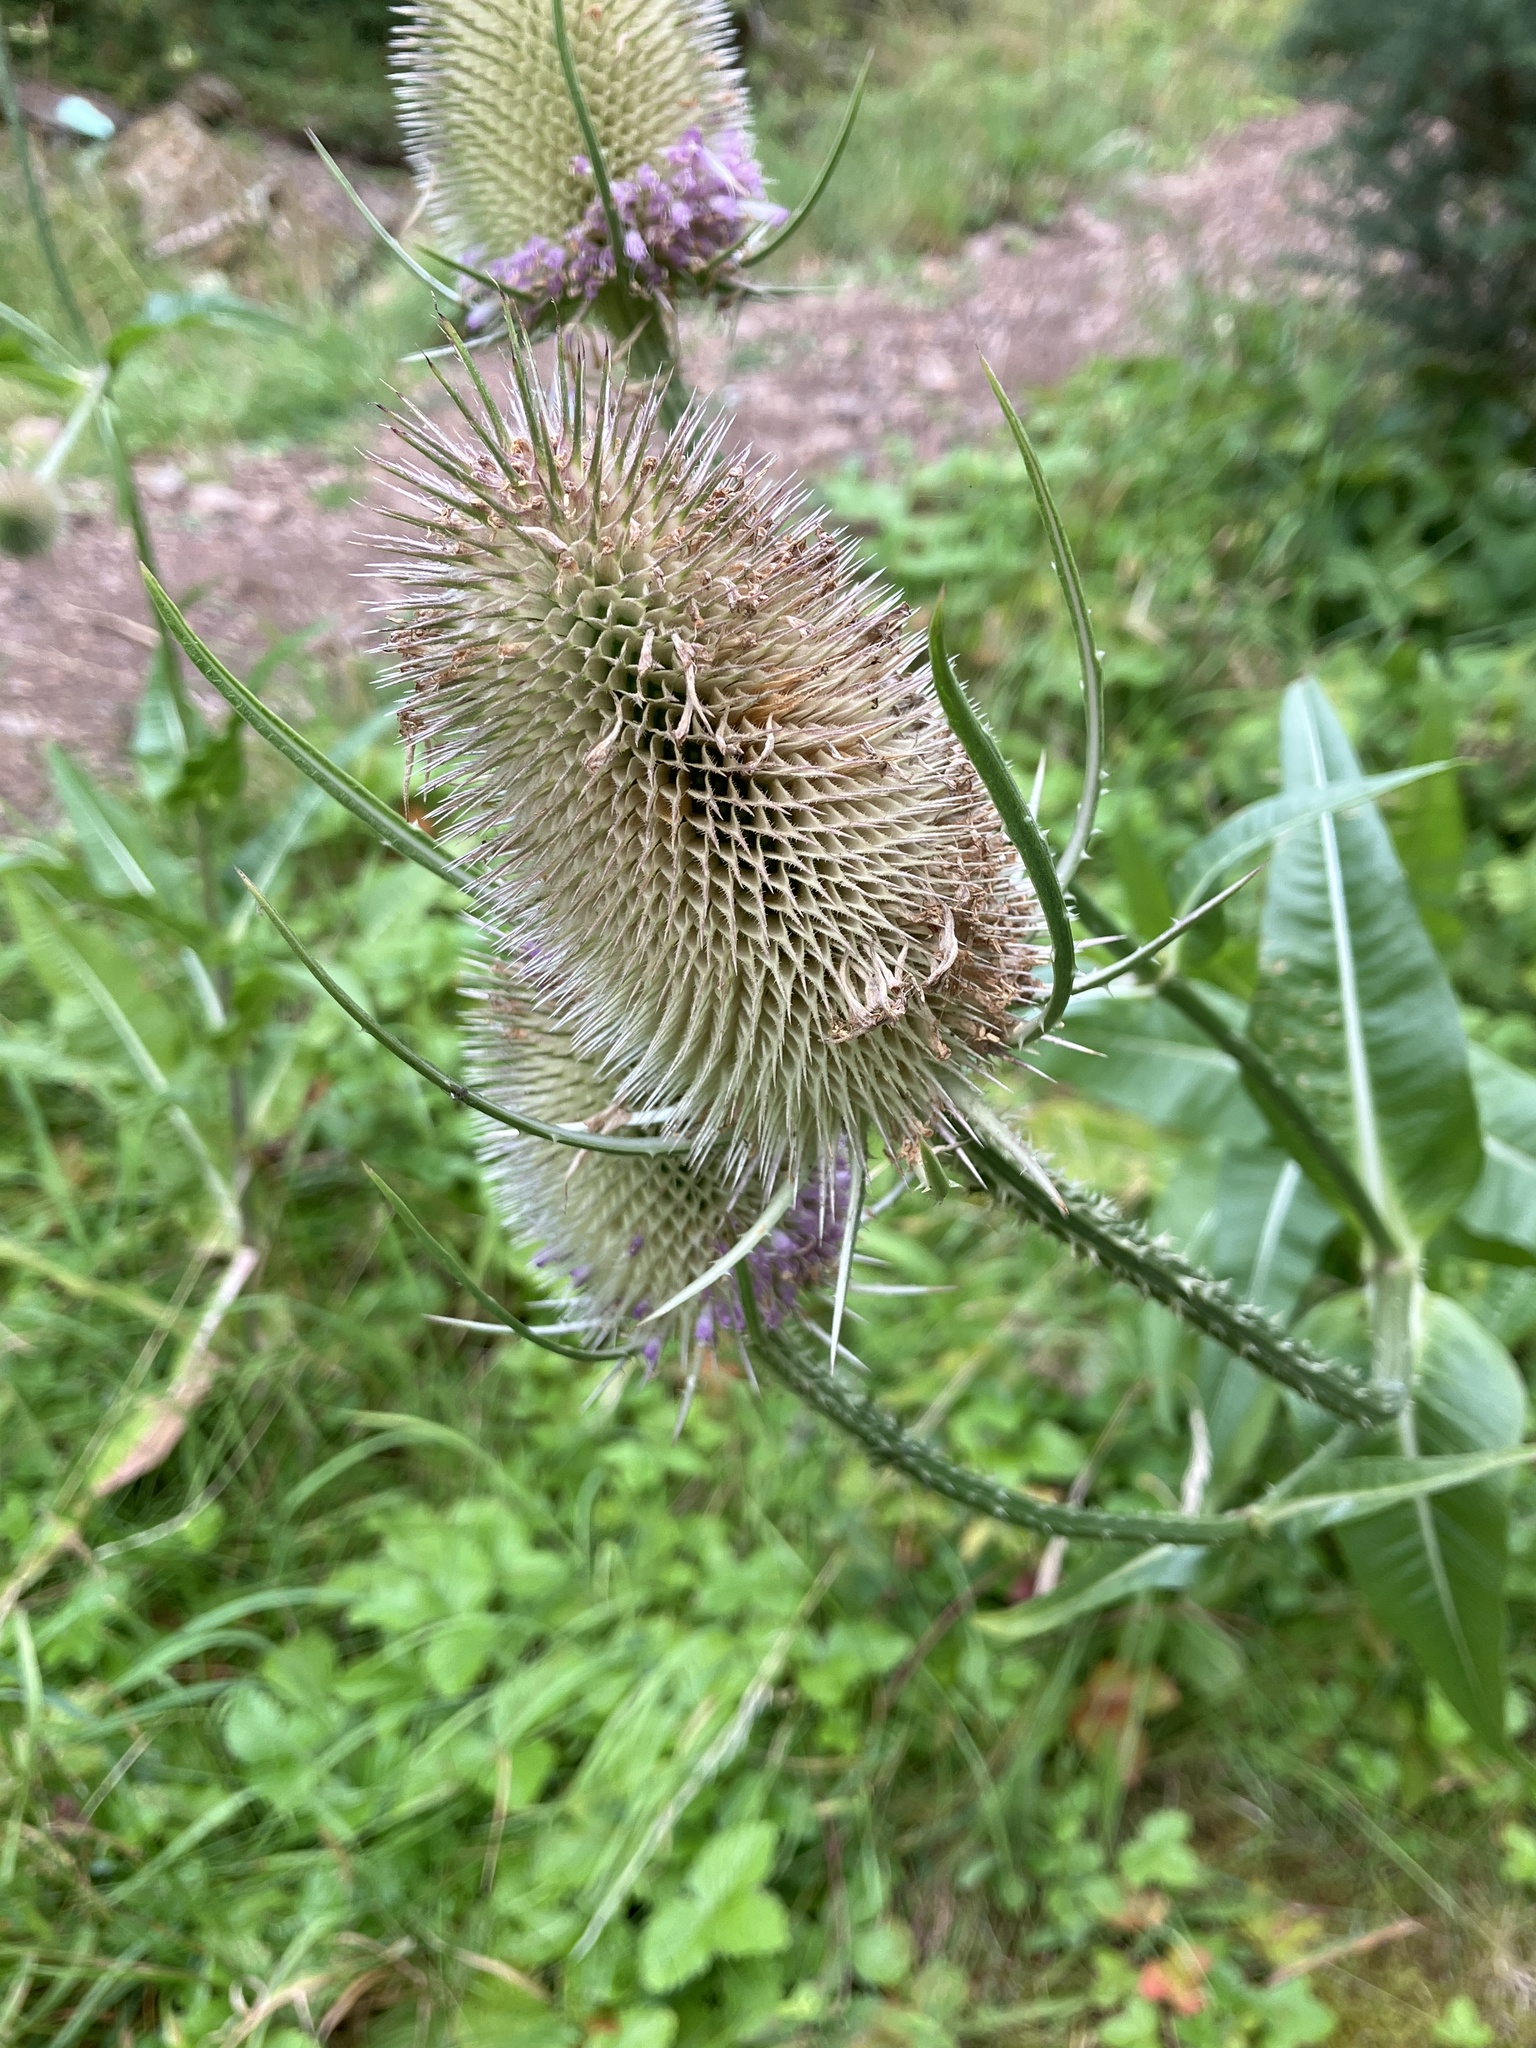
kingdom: Plantae
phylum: Tracheophyta
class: Magnoliopsida
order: Dipsacales
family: Caprifoliaceae
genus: Dipsacus
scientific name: Dipsacus fullonum
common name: Teasel
